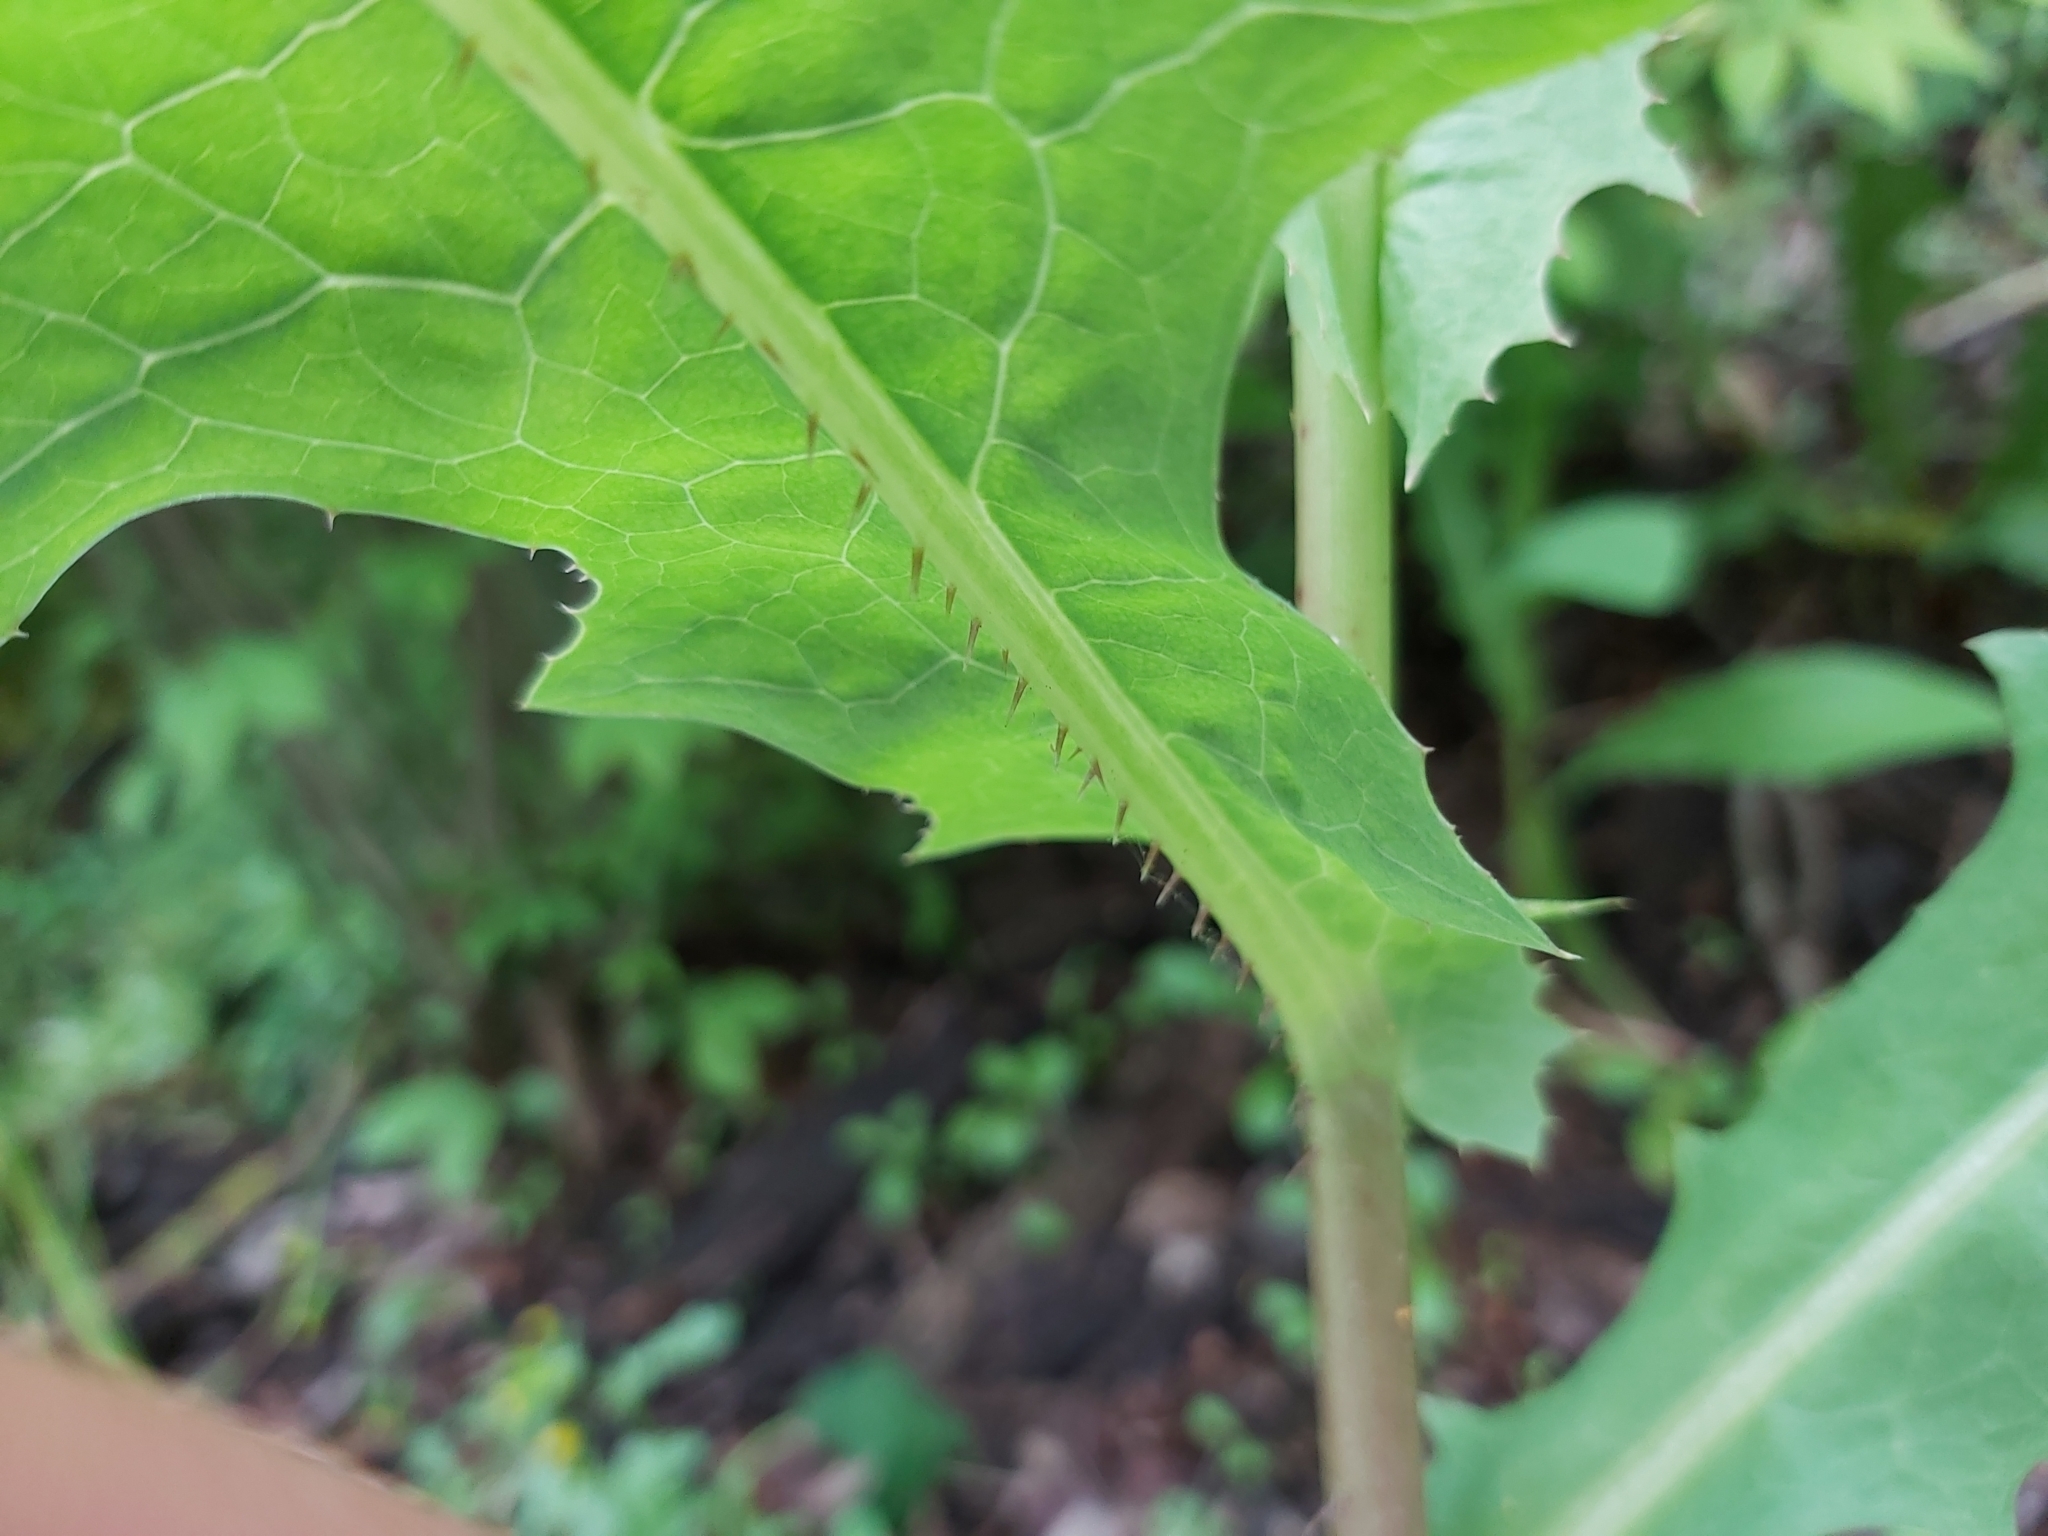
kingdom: Plantae
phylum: Tracheophyta
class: Magnoliopsida
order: Asterales
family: Asteraceae
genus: Lactuca
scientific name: Lactuca serriola
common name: Prickly lettuce
